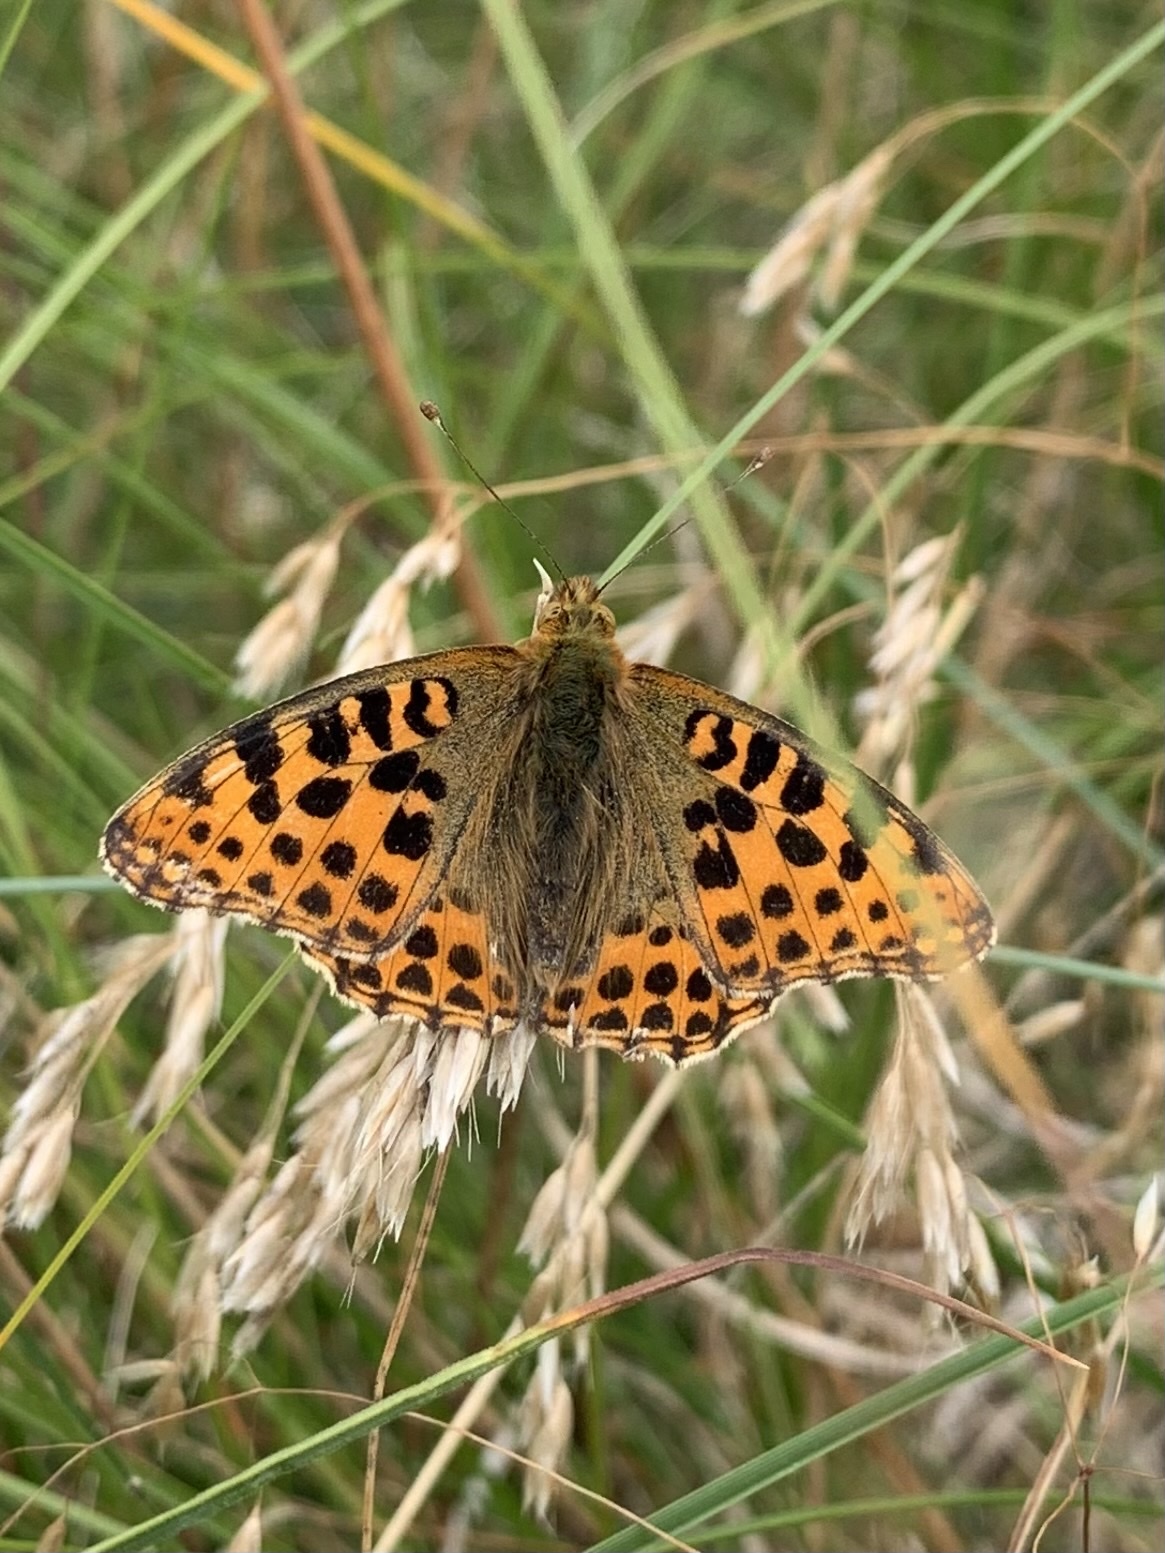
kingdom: Animalia
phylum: Arthropoda
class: Insecta
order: Lepidoptera
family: Nymphalidae
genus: Issoria
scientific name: Issoria lathonia
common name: Queen of spain fritillary
